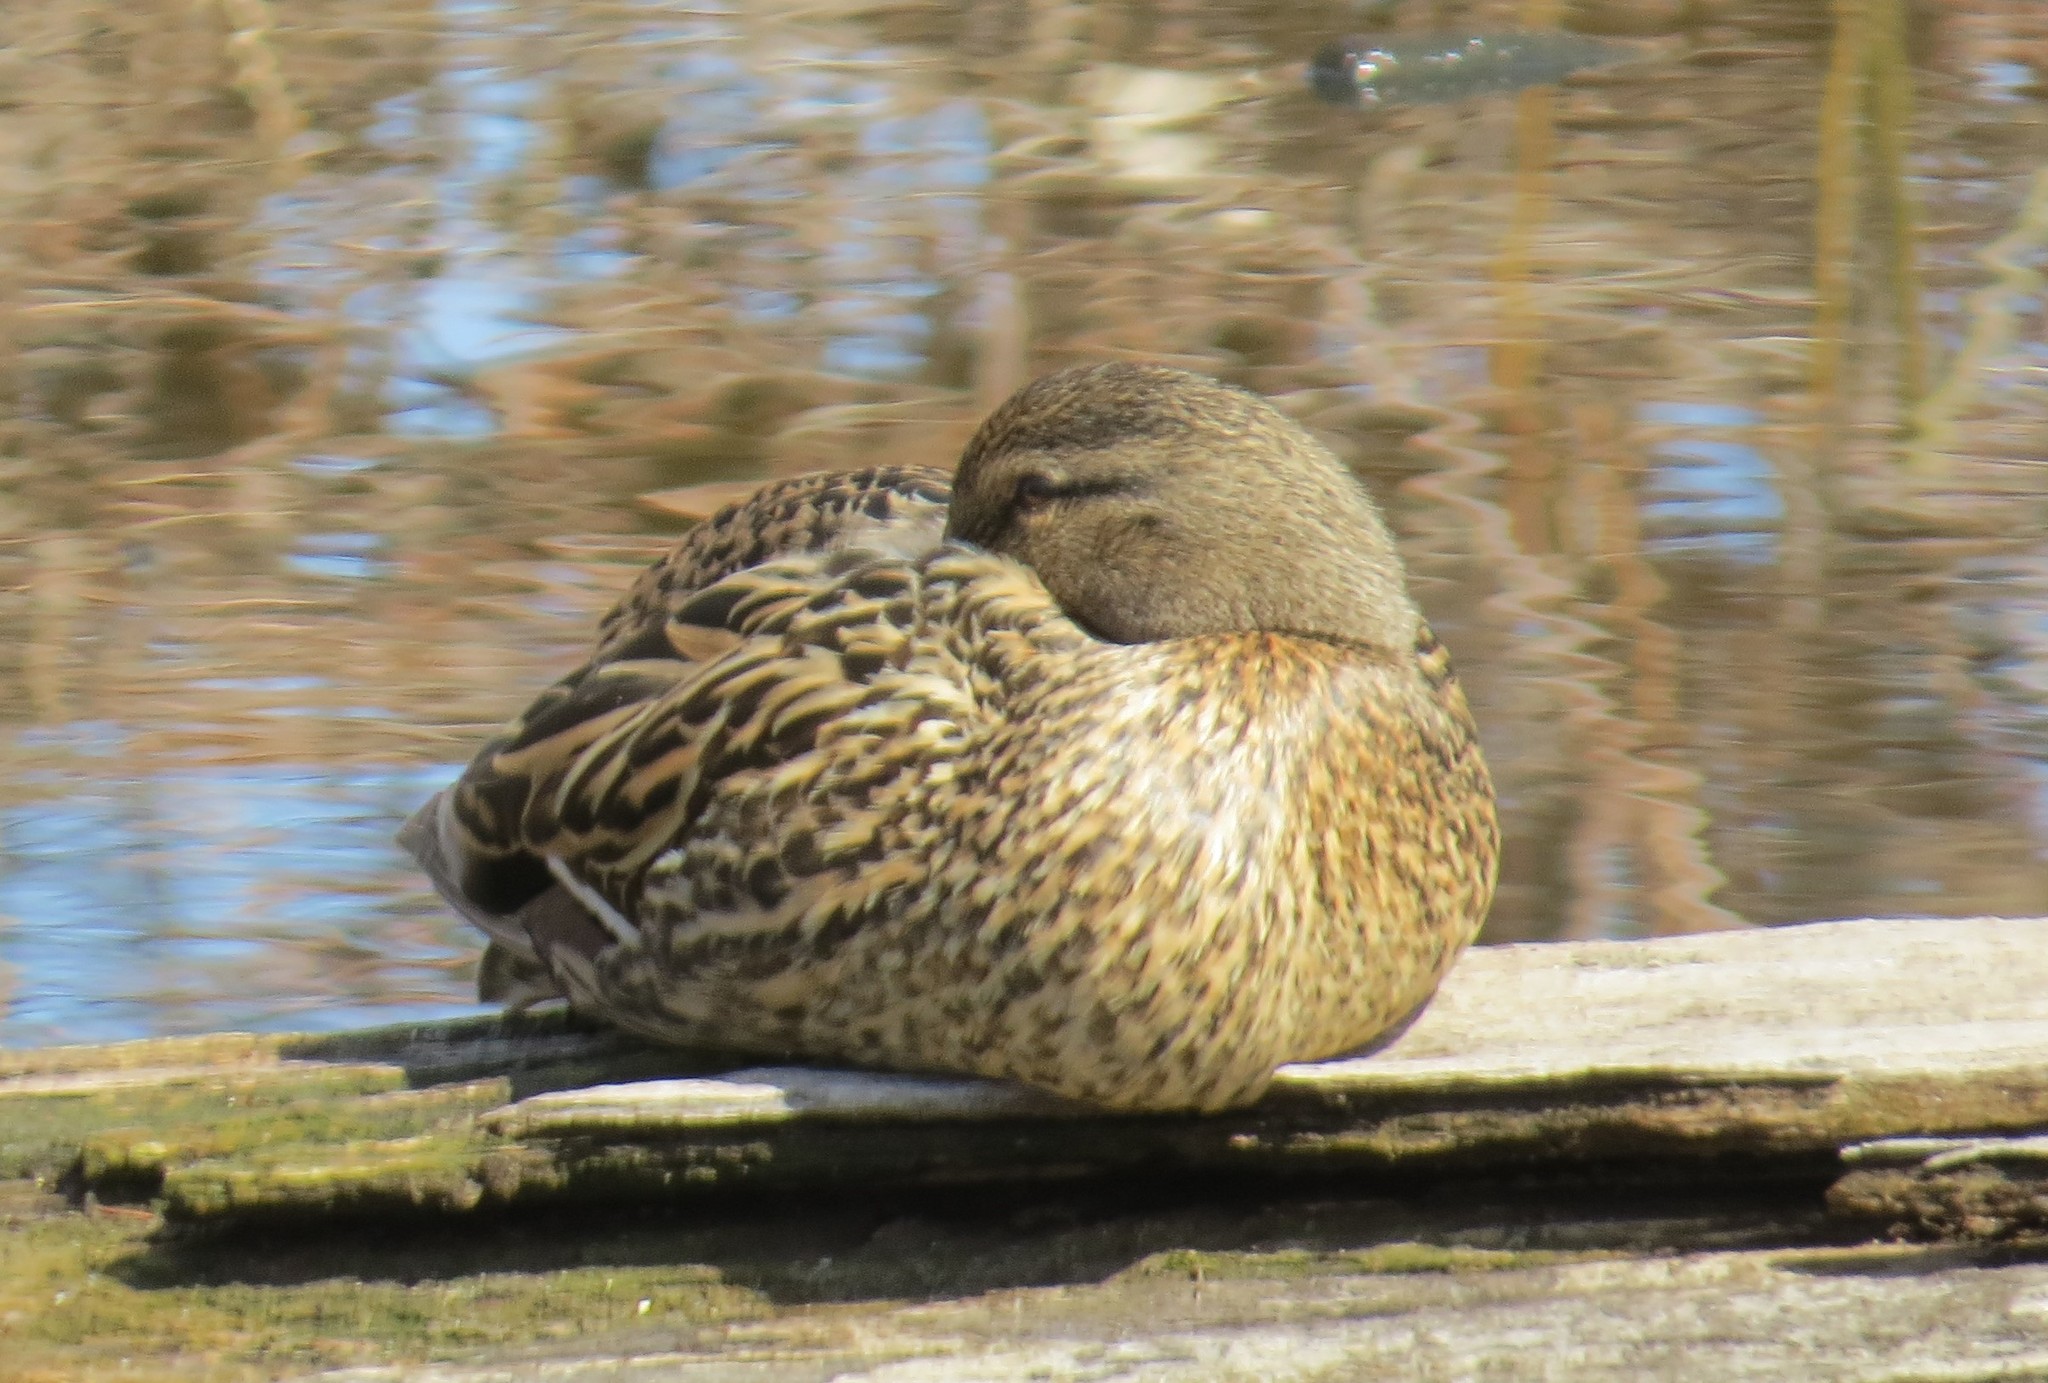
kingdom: Animalia
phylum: Chordata
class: Aves
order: Anseriformes
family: Anatidae
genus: Anas
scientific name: Anas platyrhynchos
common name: Mallard
